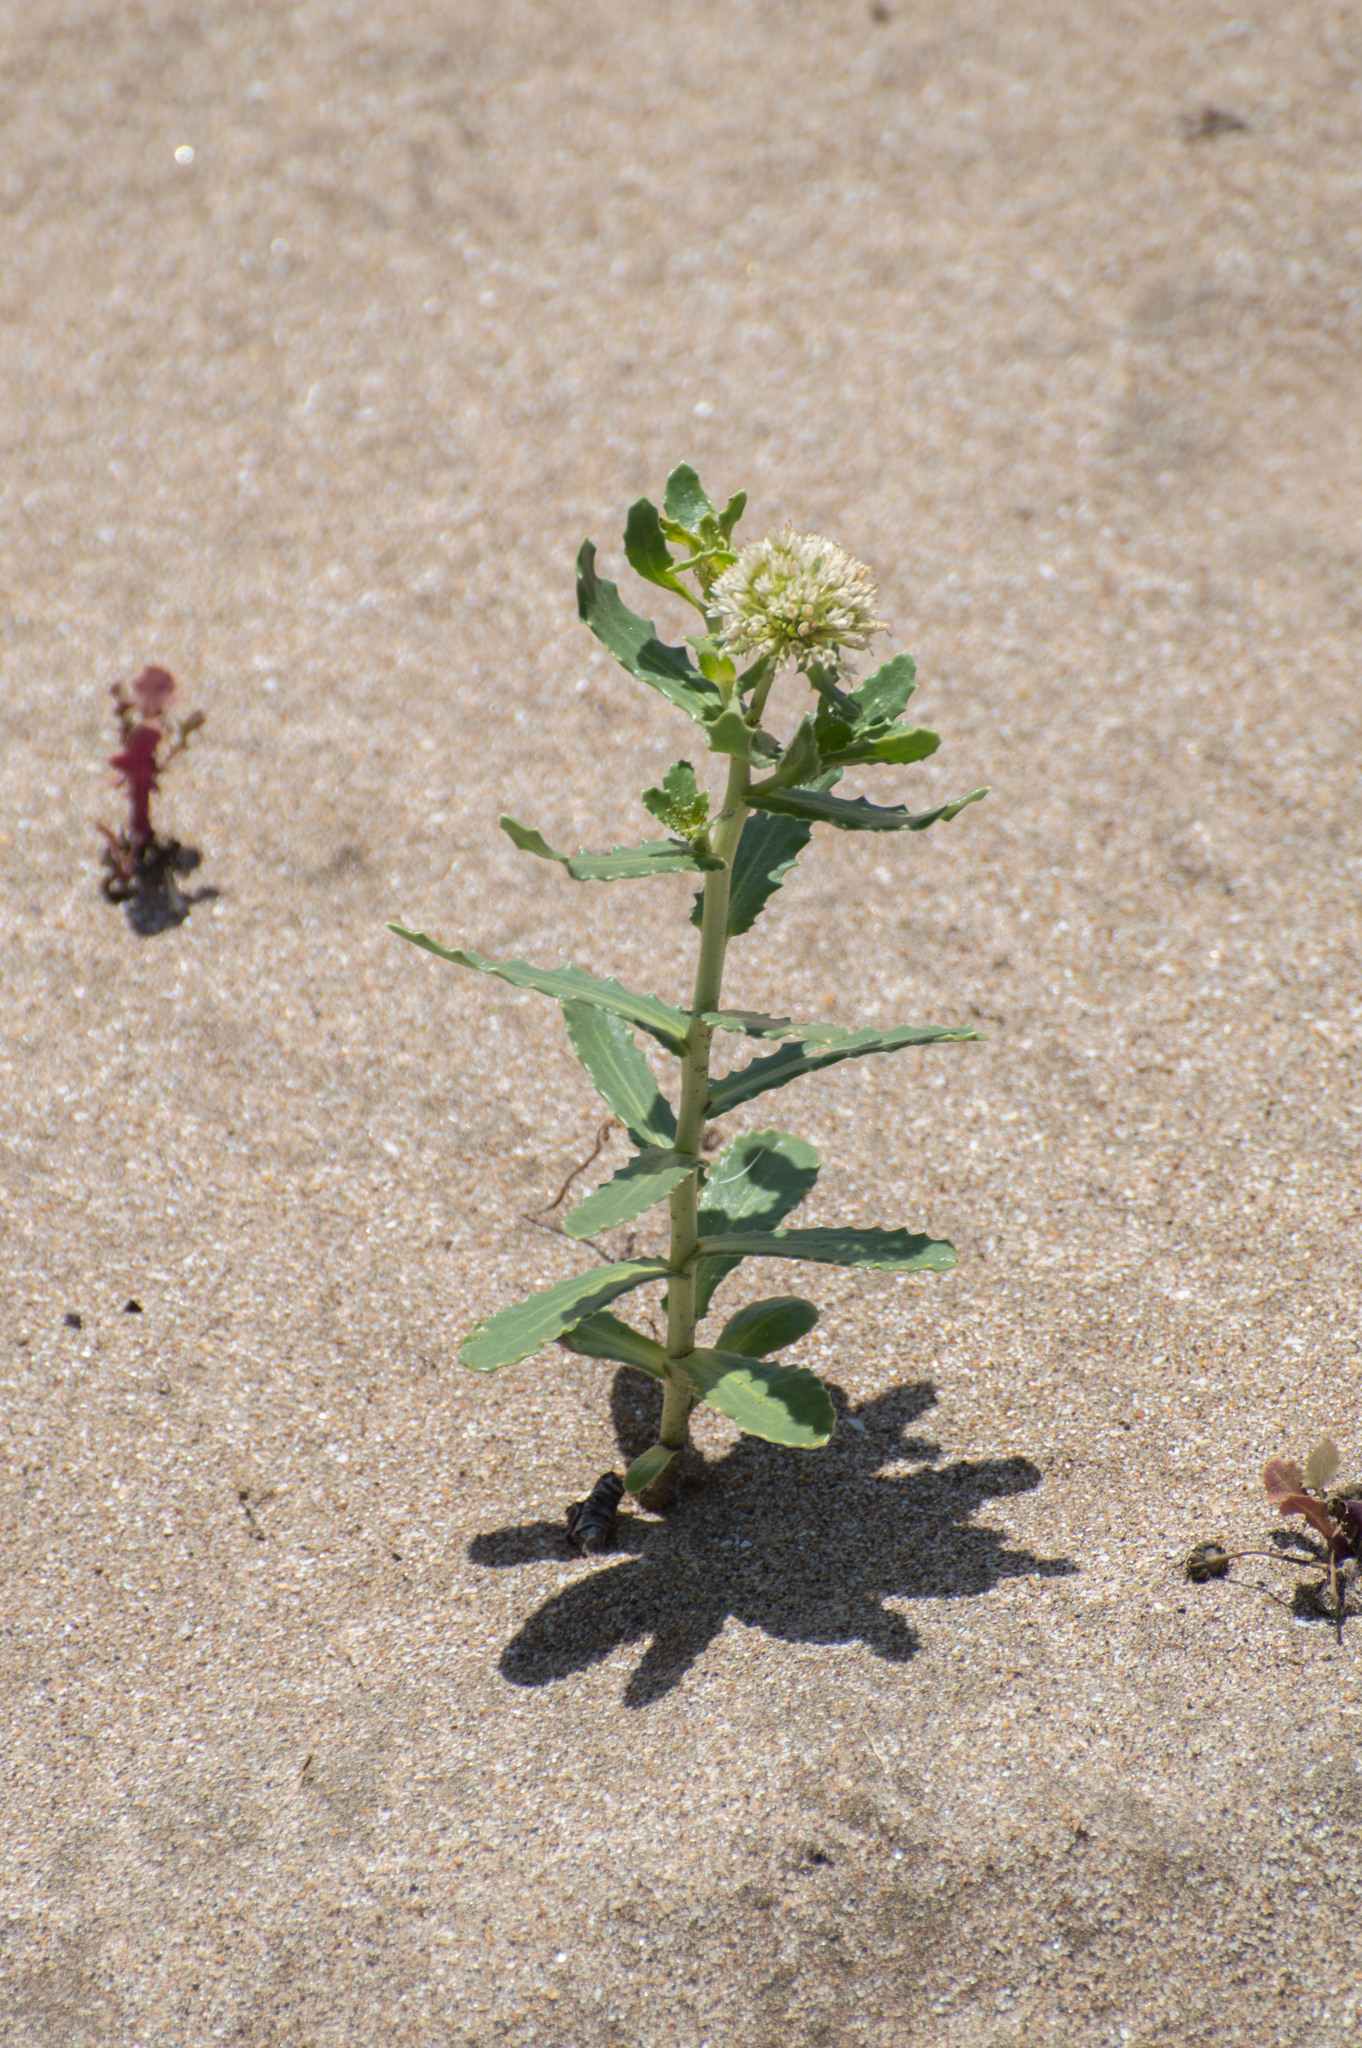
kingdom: Plantae
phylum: Tracheophyta
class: Magnoliopsida
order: Asterales
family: Calyceraceae
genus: Calycera
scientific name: Calycera crassifolia
